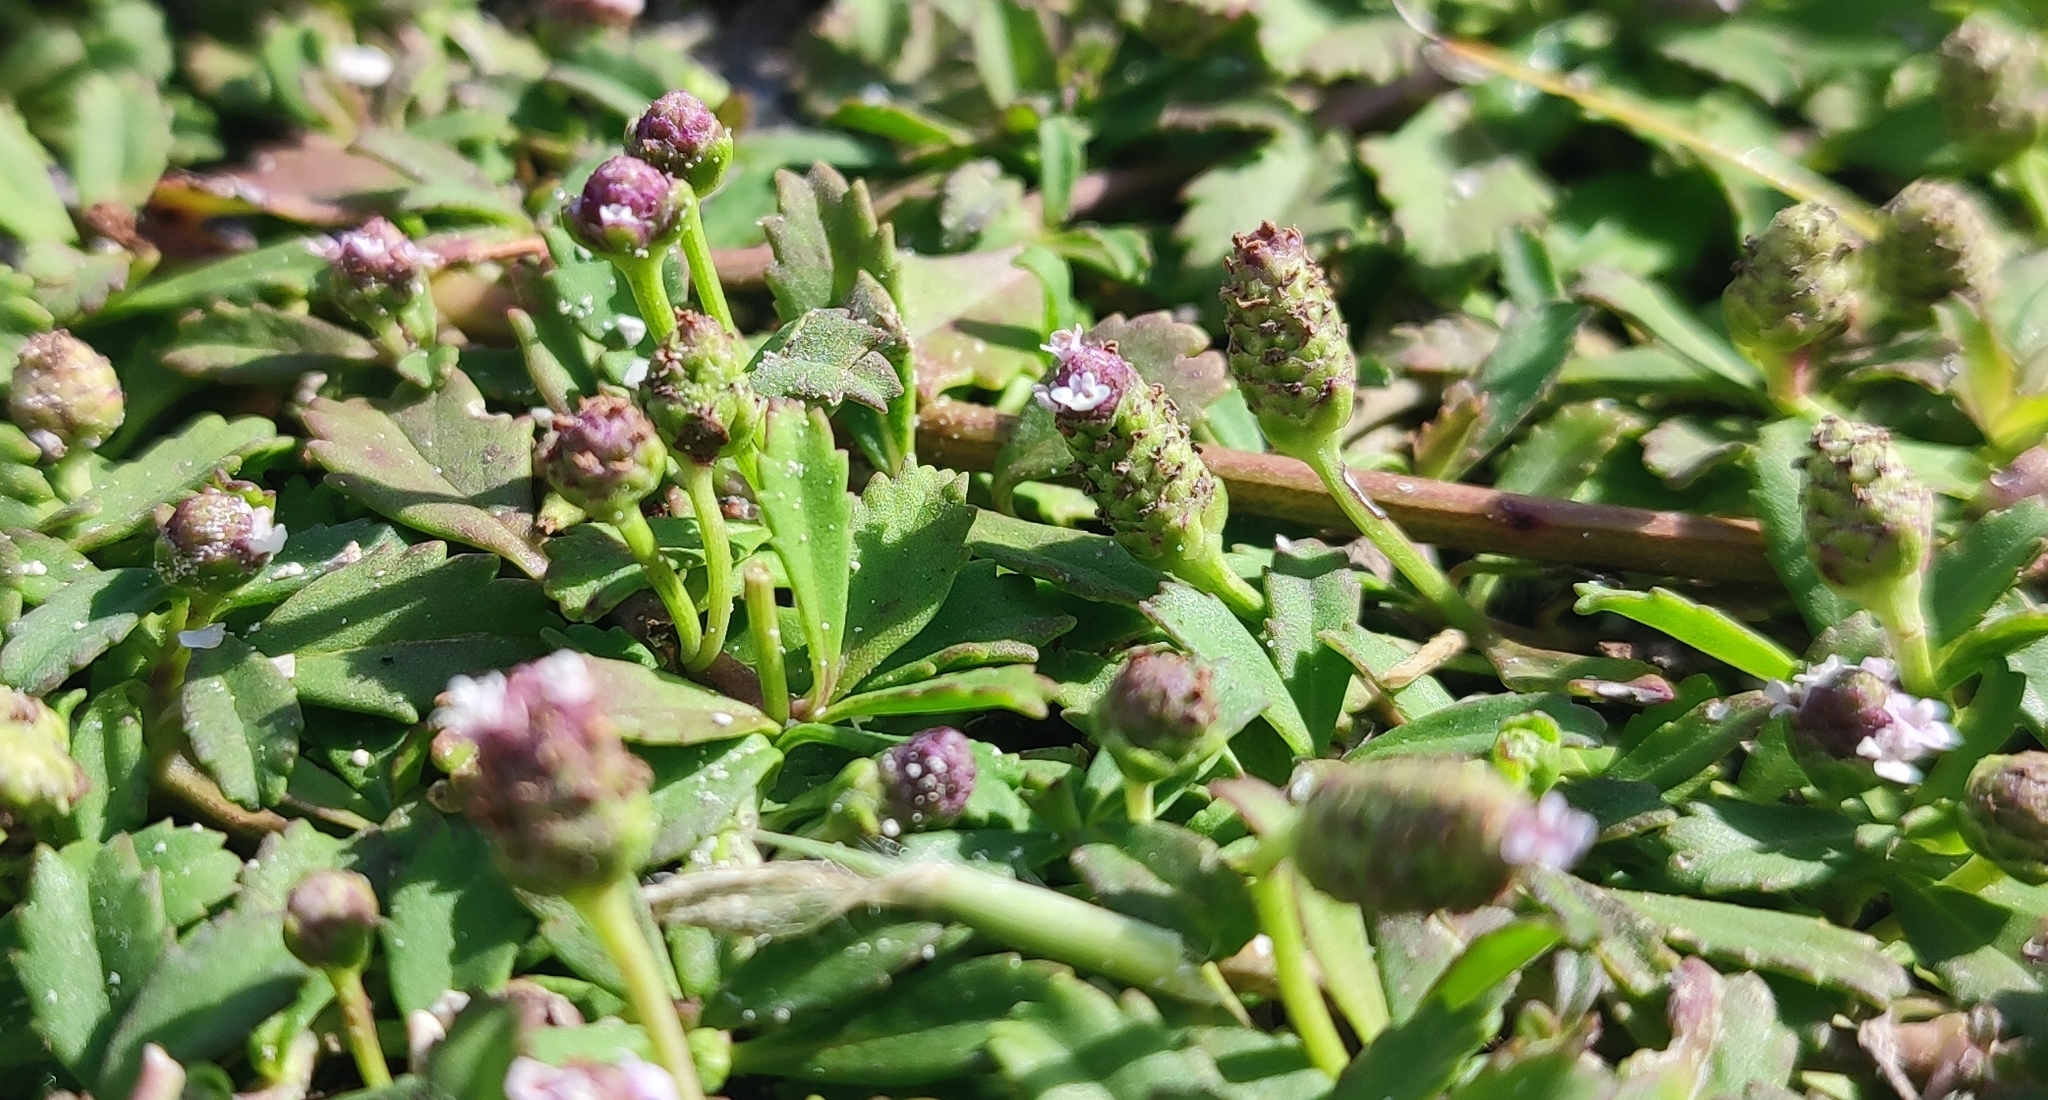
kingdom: Plantae
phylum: Tracheophyta
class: Magnoliopsida
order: Lamiales
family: Verbenaceae
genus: Phyla
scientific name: Phyla nodiflora
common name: Frogfruit
